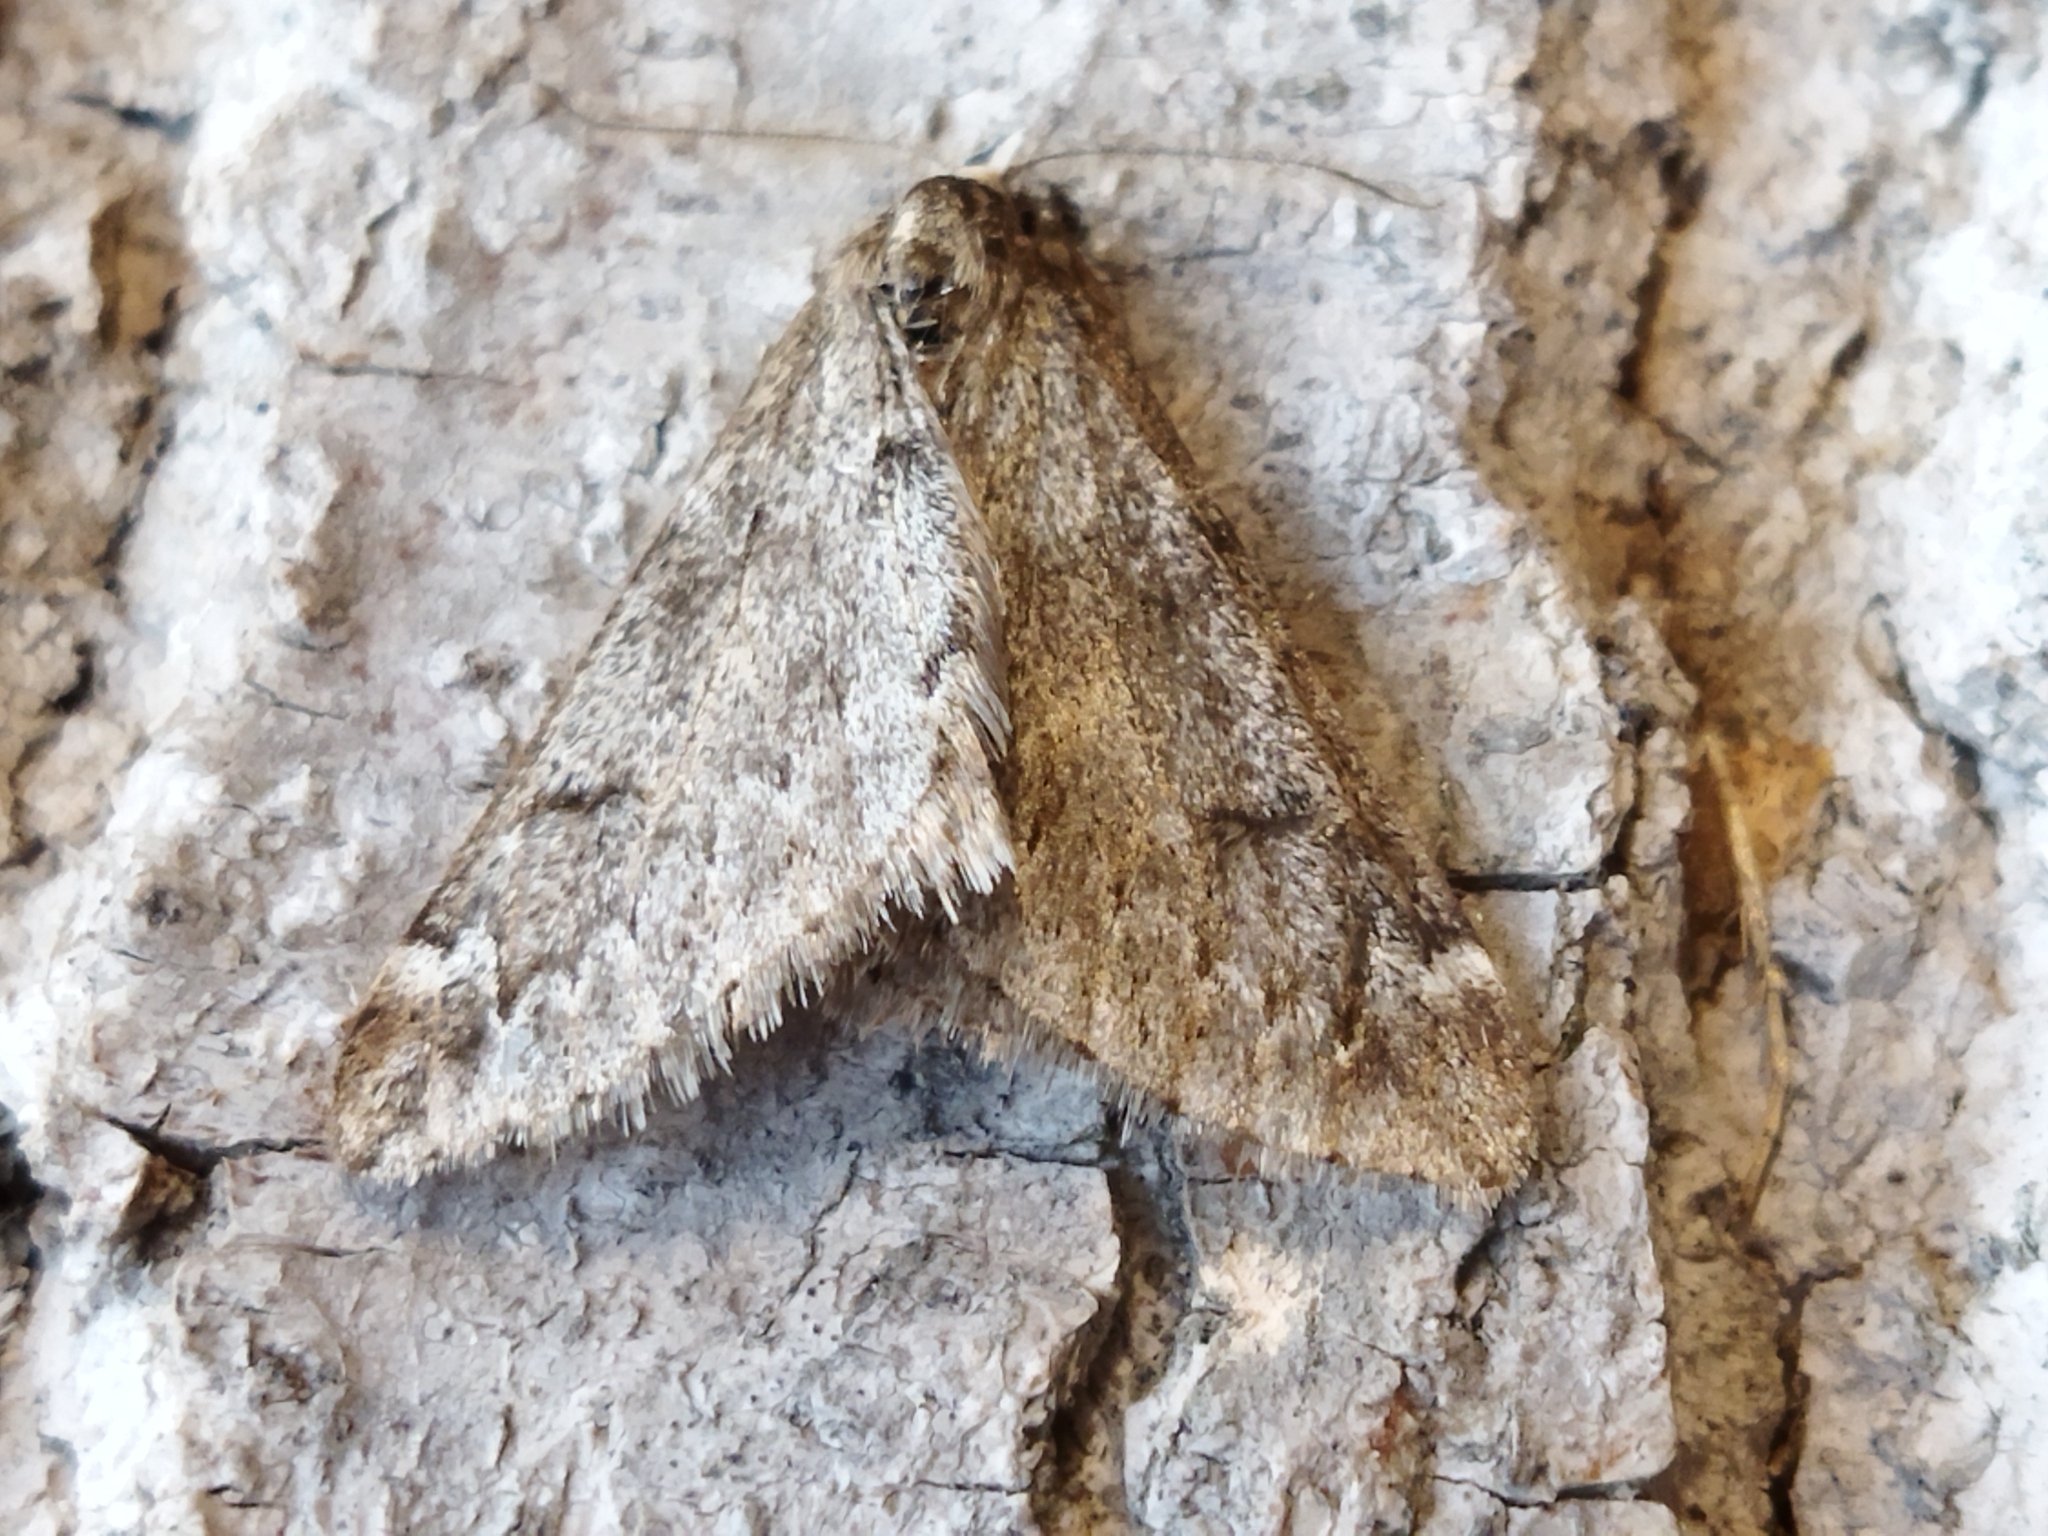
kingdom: Animalia
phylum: Arthropoda
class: Insecta
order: Lepidoptera
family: Geometridae
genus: Alsophila
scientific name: Alsophila aescularia
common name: March moth
